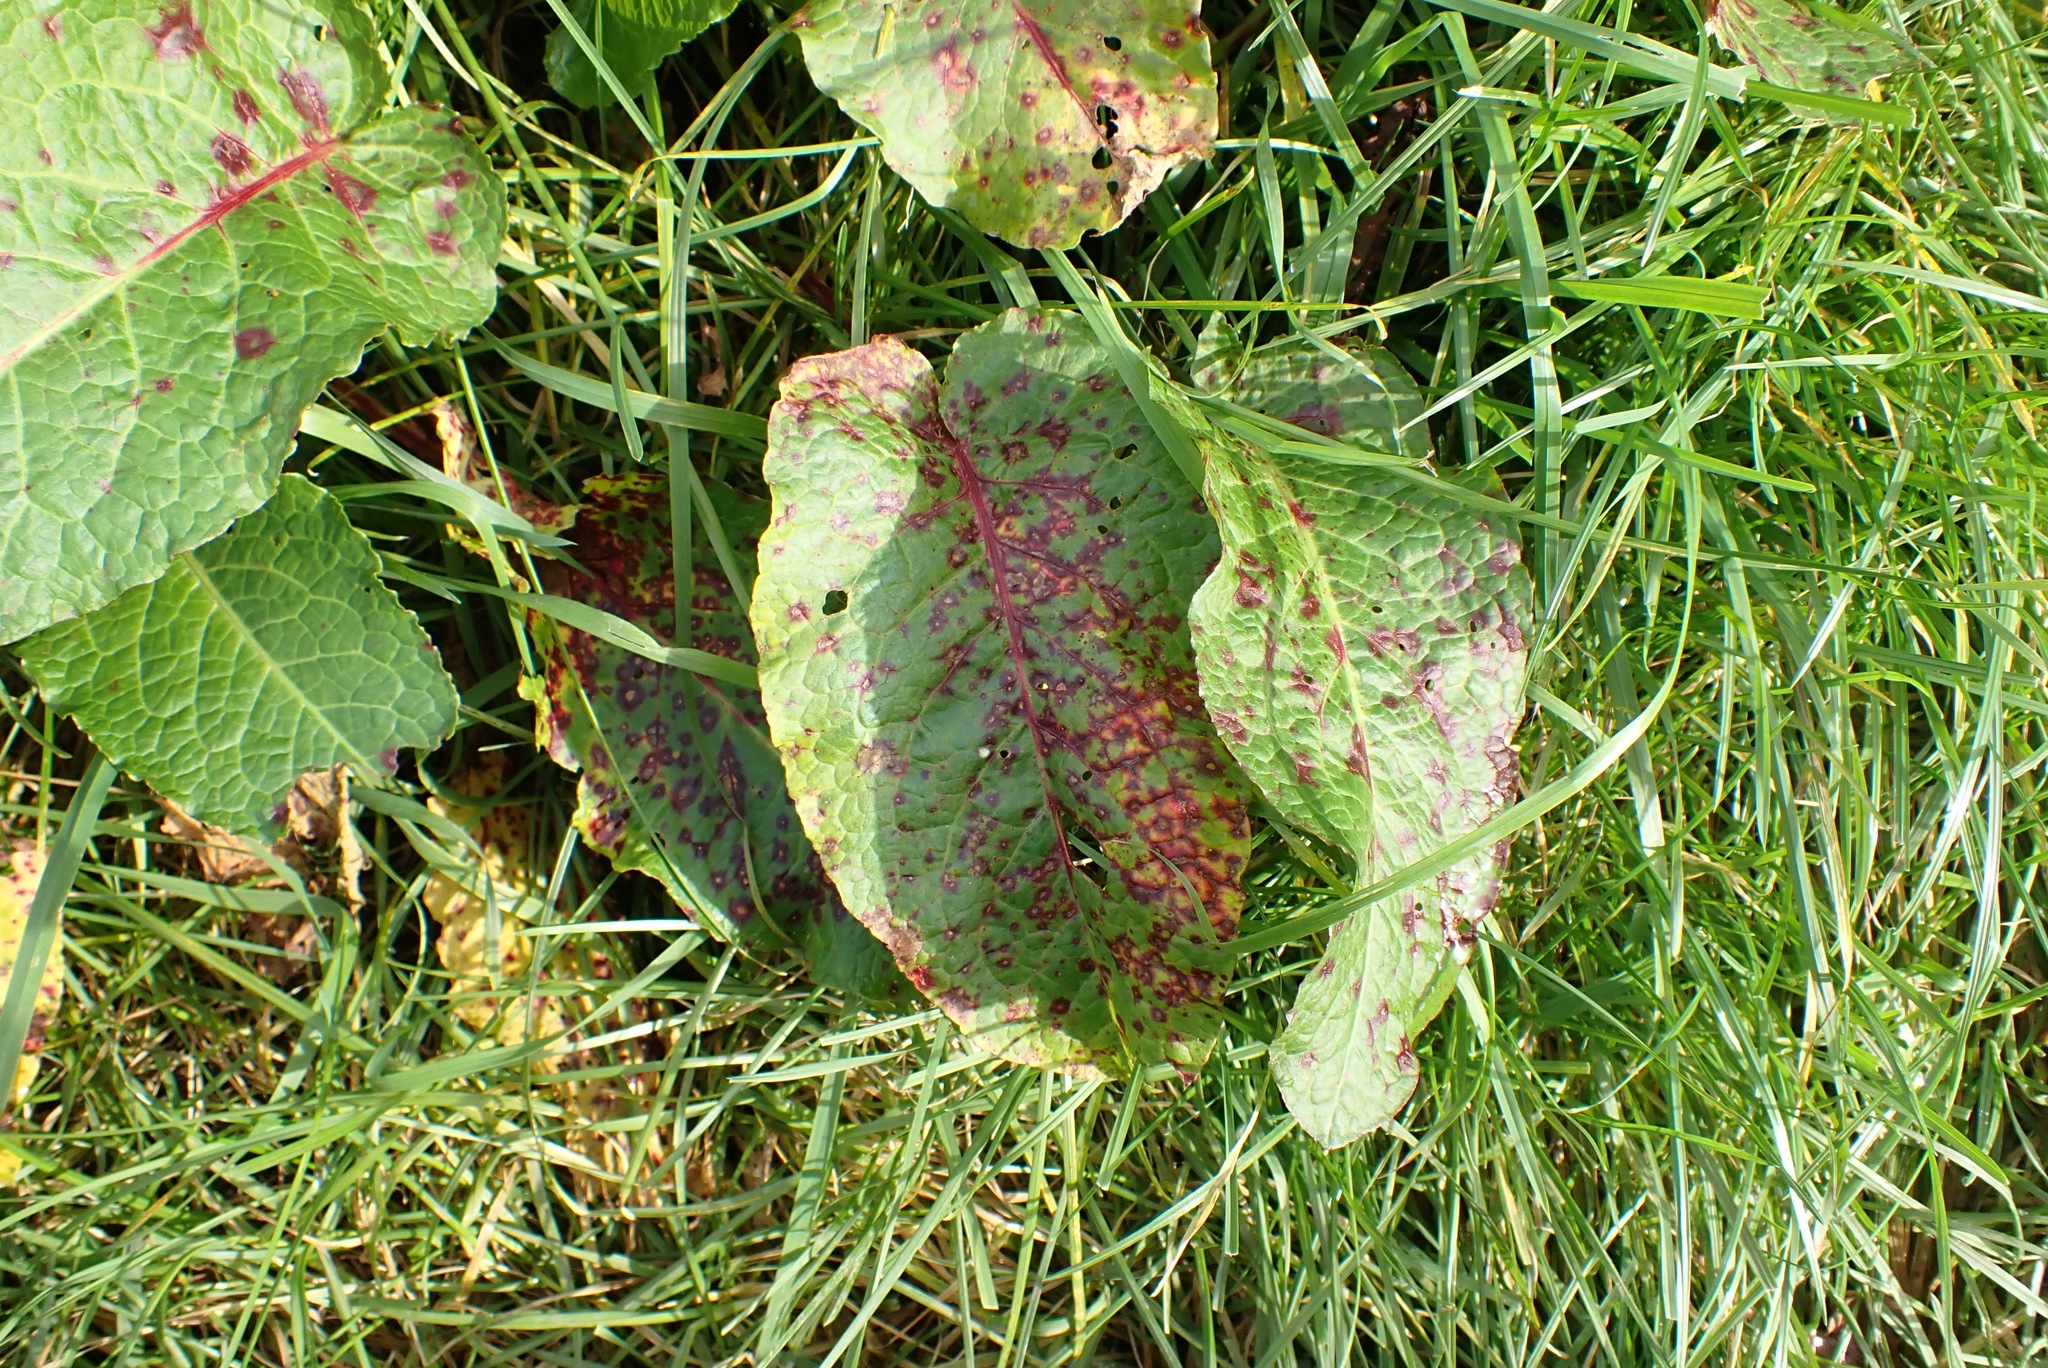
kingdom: Fungi
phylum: Ascomycota
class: Dothideomycetes
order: Mycosphaerellales
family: Mycosphaerellaceae
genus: Ramularia
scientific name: Ramularia rubella
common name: Red dock spot
